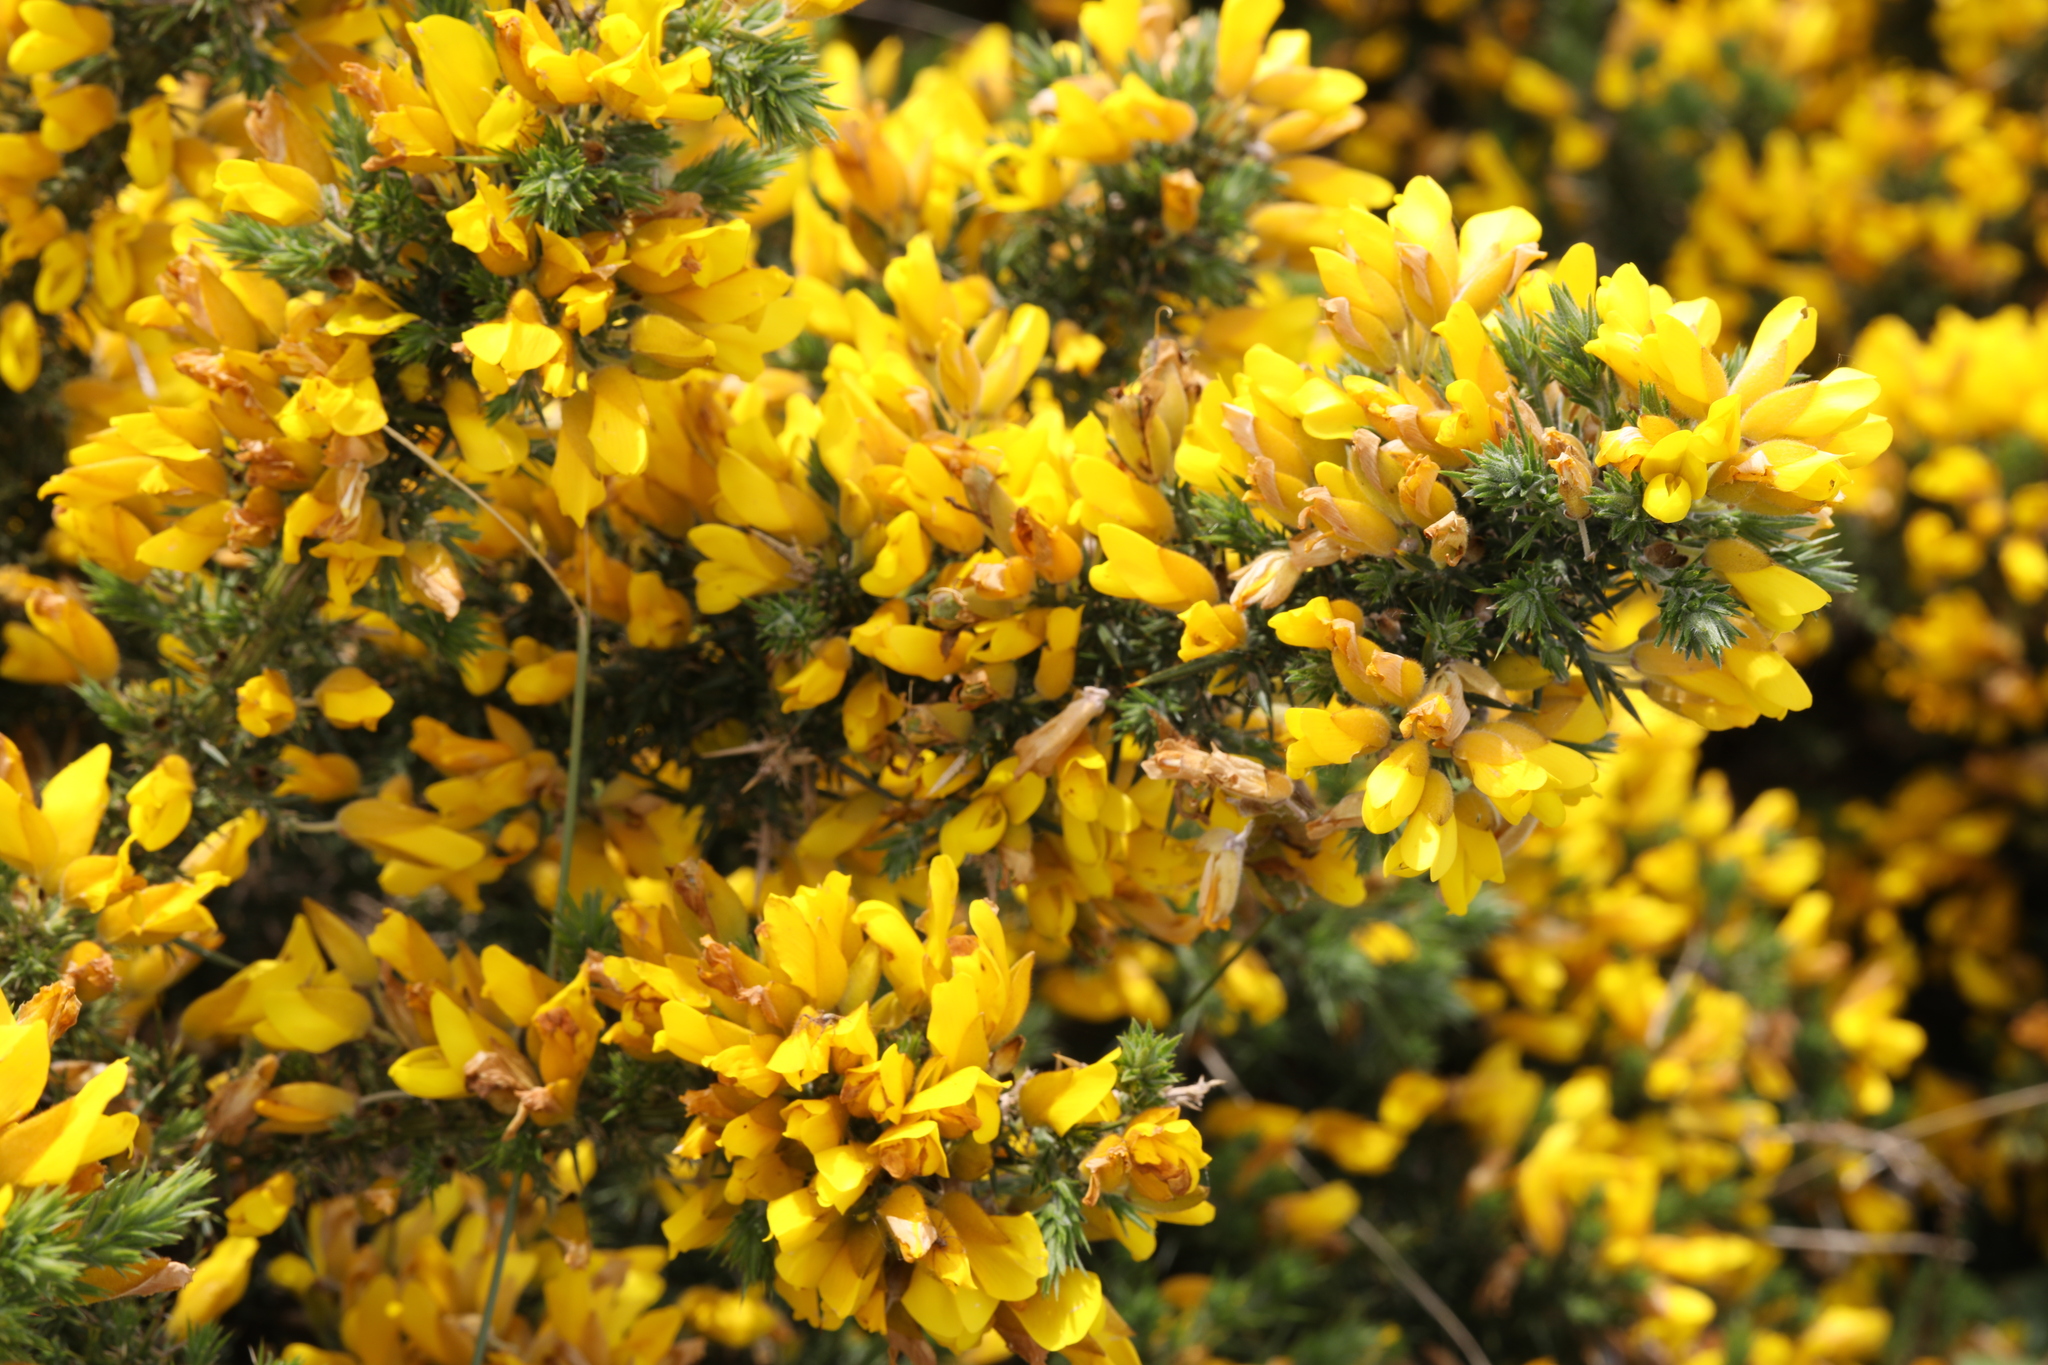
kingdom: Plantae
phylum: Tracheophyta
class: Magnoliopsida
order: Fabales
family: Fabaceae
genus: Ulex
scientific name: Ulex europaeus
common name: Common gorse
